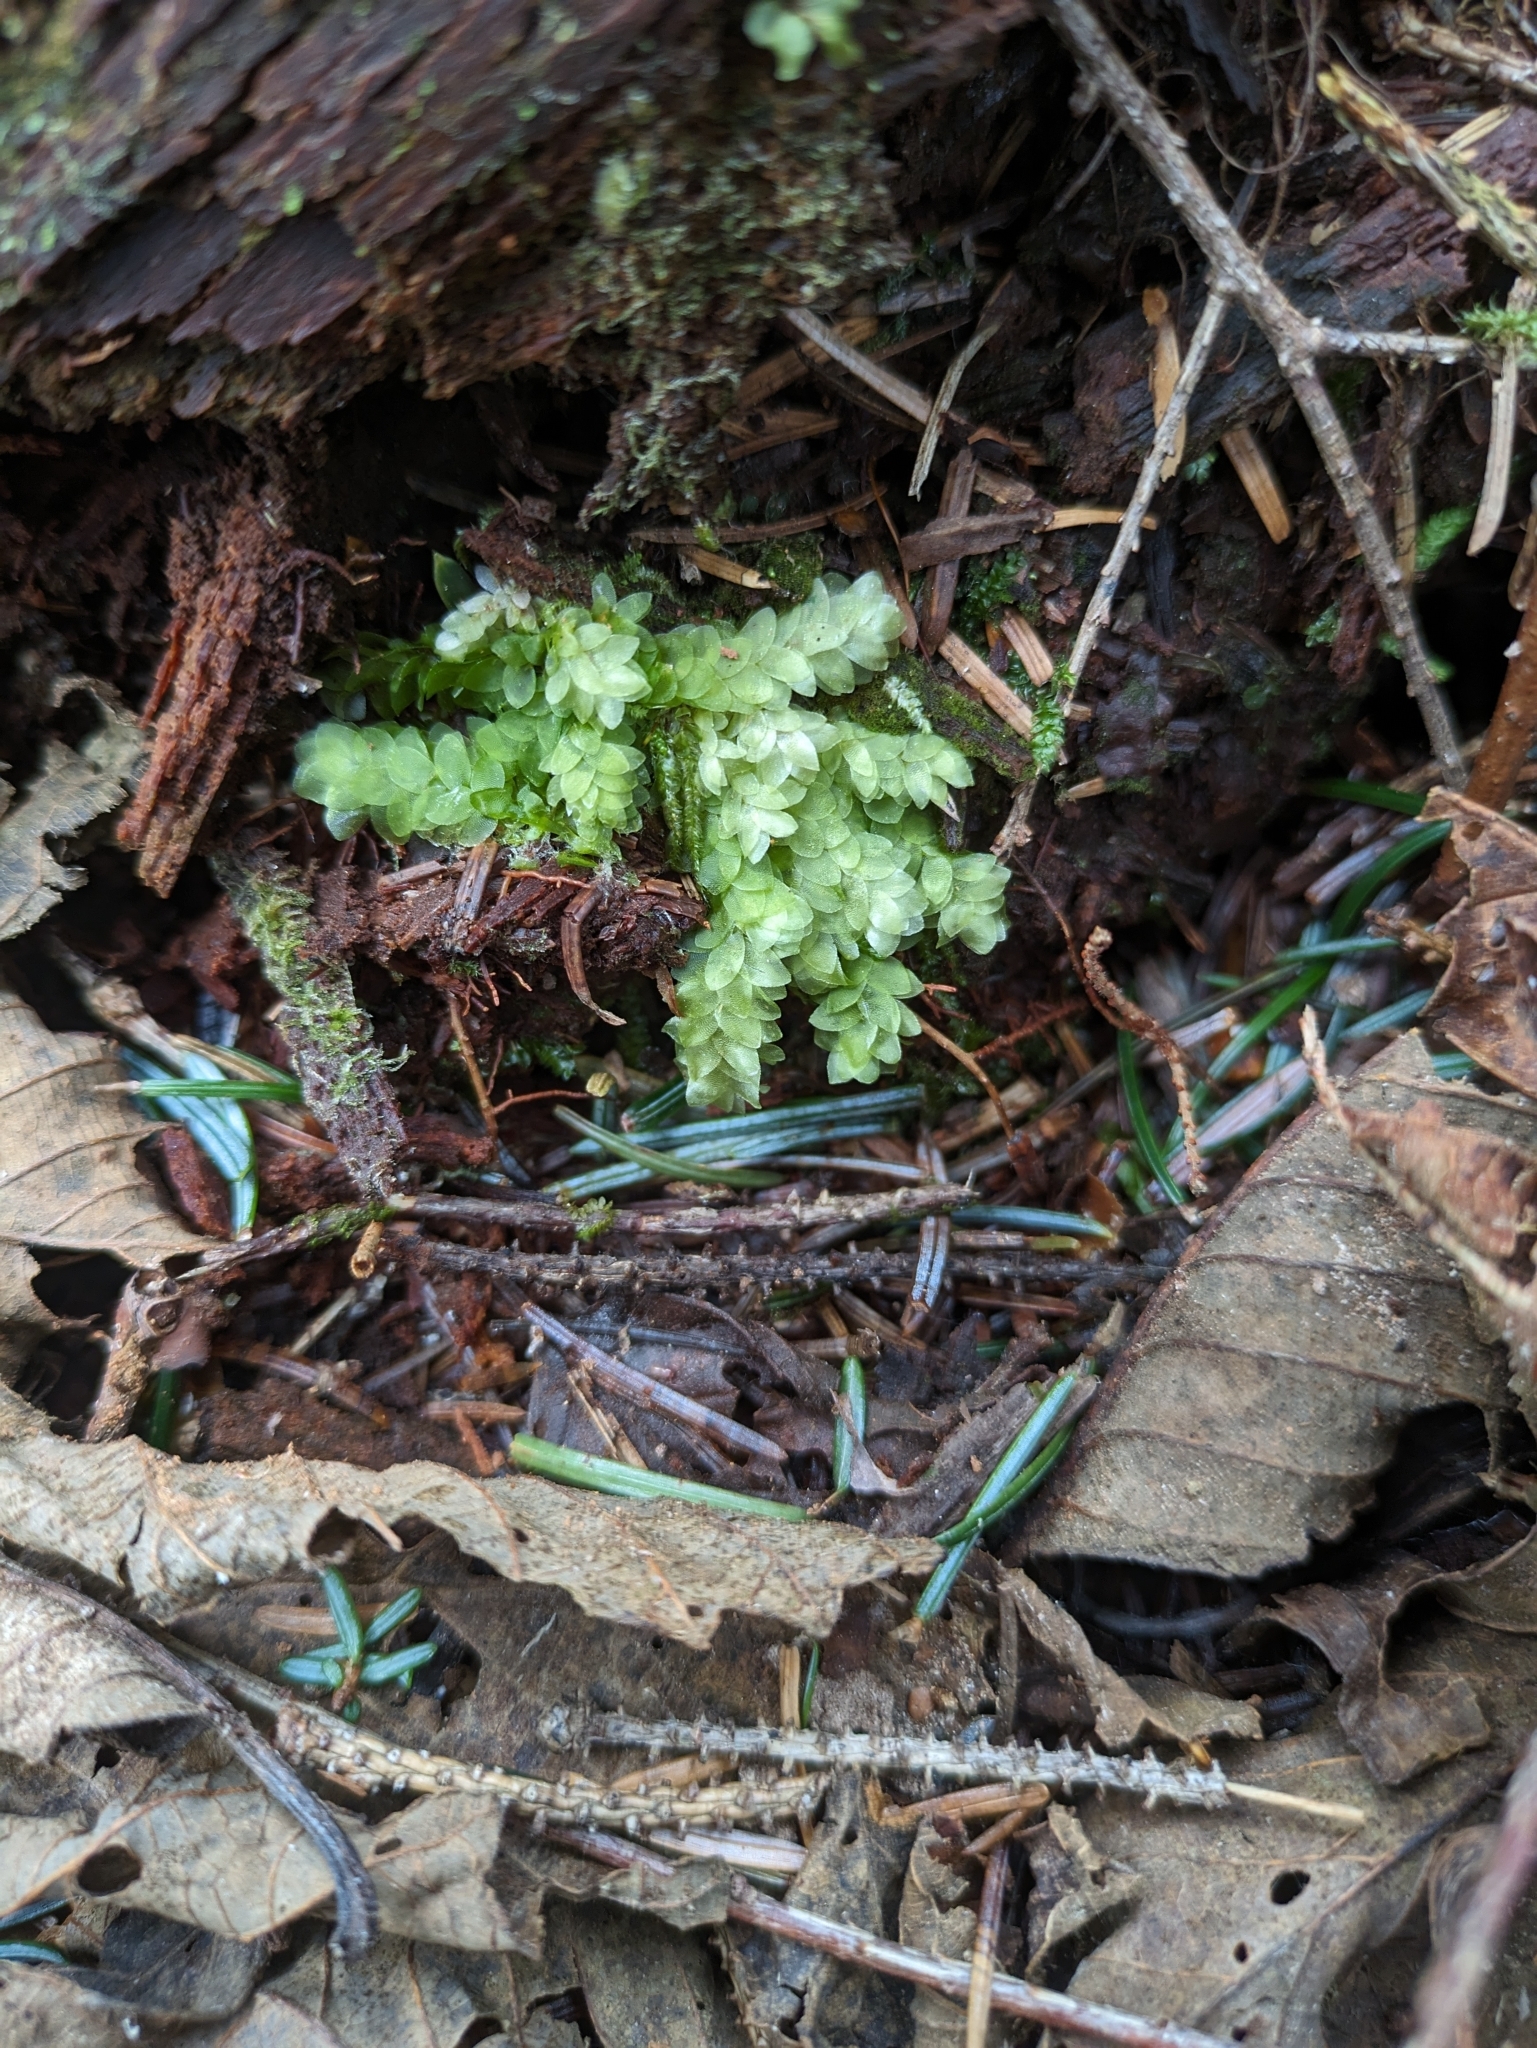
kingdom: Plantae
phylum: Bryophyta
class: Bryopsida
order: Hookeriales
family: Hookeriaceae
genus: Hookeria
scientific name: Hookeria lucens
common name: Shining hookeria
